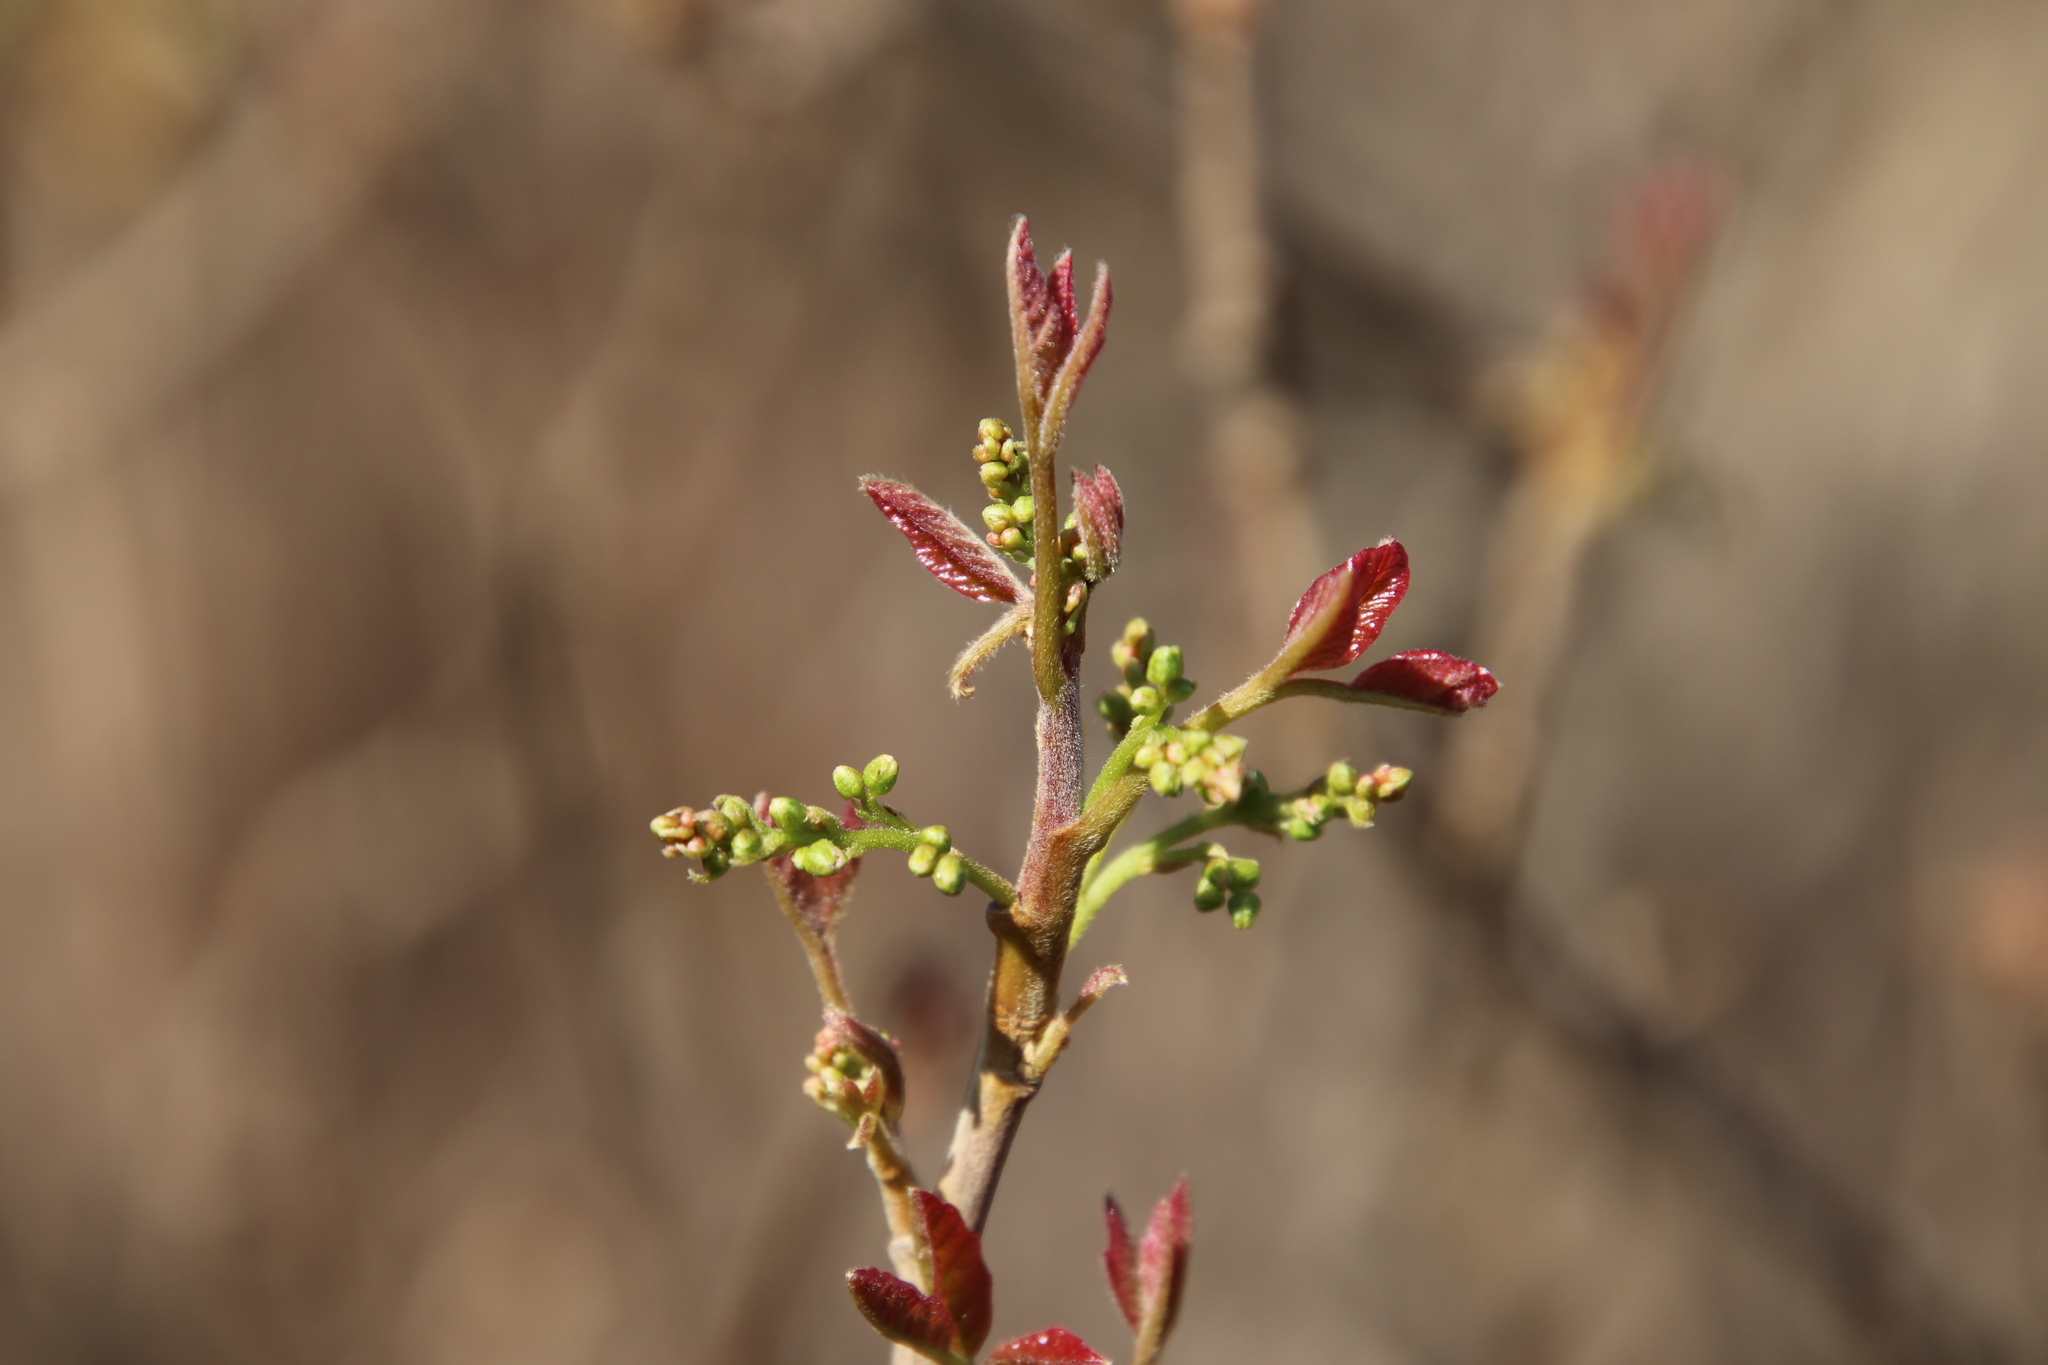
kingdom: Plantae
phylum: Tracheophyta
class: Magnoliopsida
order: Sapindales
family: Anacardiaceae
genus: Toxicodendron
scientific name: Toxicodendron diversilobum
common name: Pacific poison-oak
